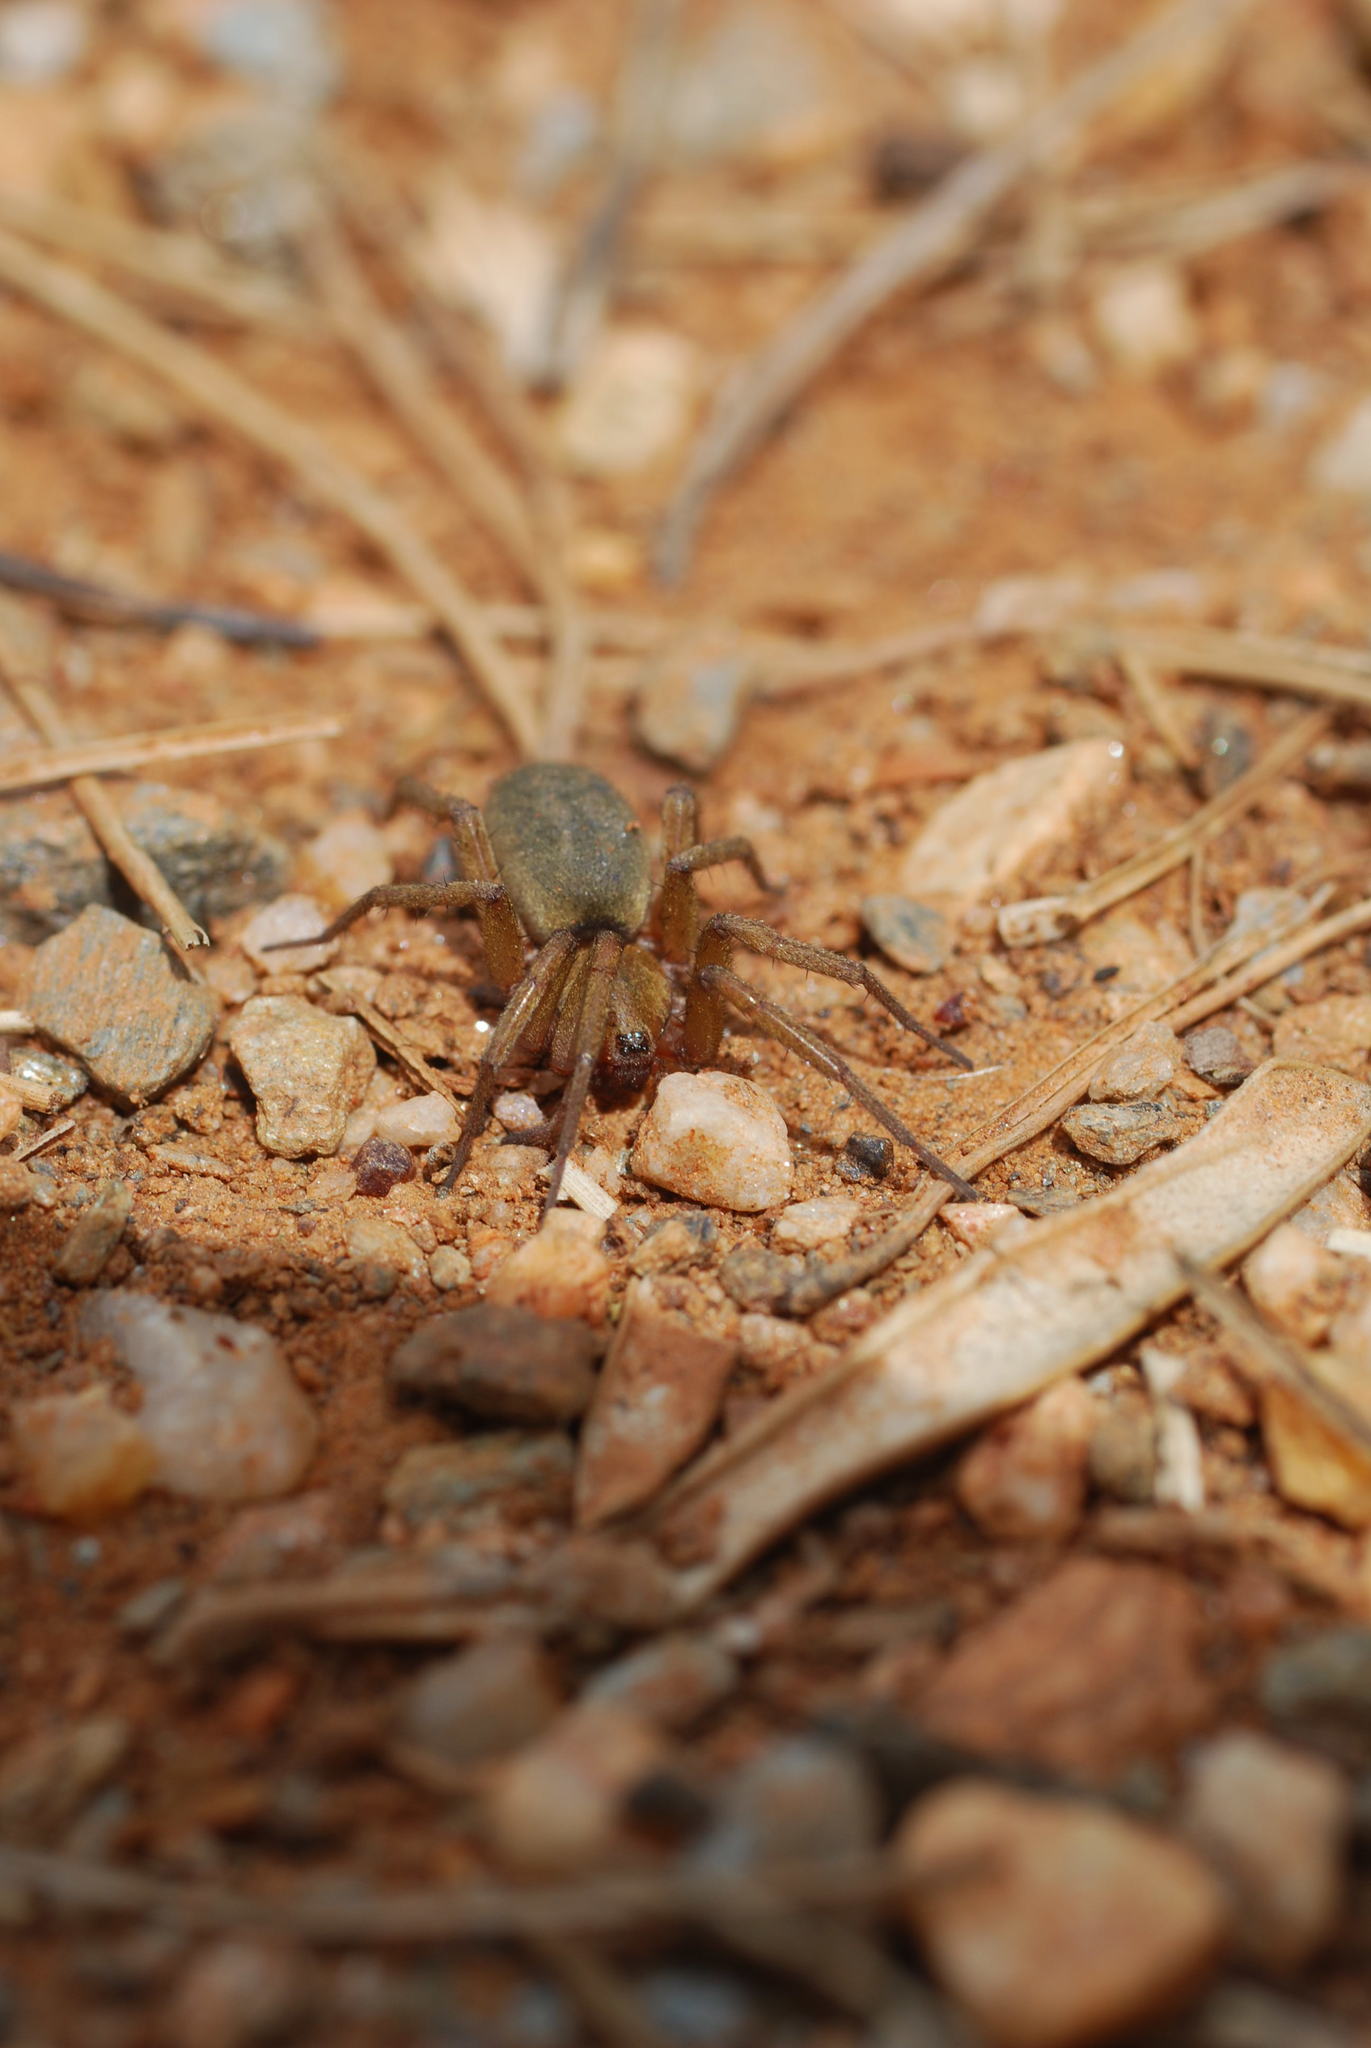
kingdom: Animalia
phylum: Arthropoda
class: Arachnida
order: Araneae
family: Gnaphosidae
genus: Pterotricha
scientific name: Pterotricha simoni
